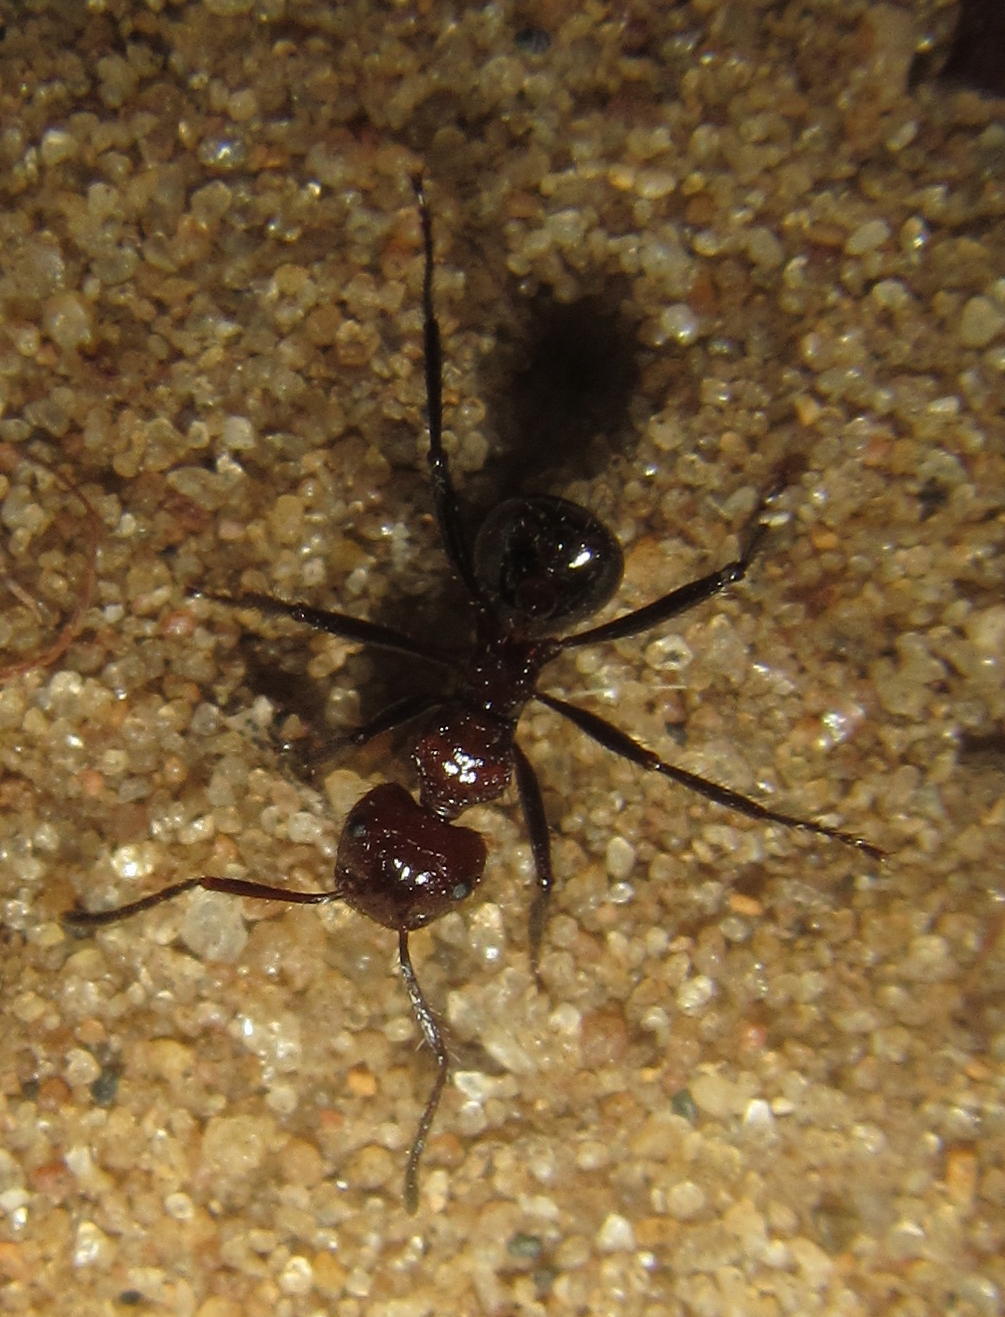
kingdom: Animalia
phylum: Arthropoda
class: Insecta
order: Hymenoptera
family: Formicidae
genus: Myrmicaria
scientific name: Myrmicaria natalensis
